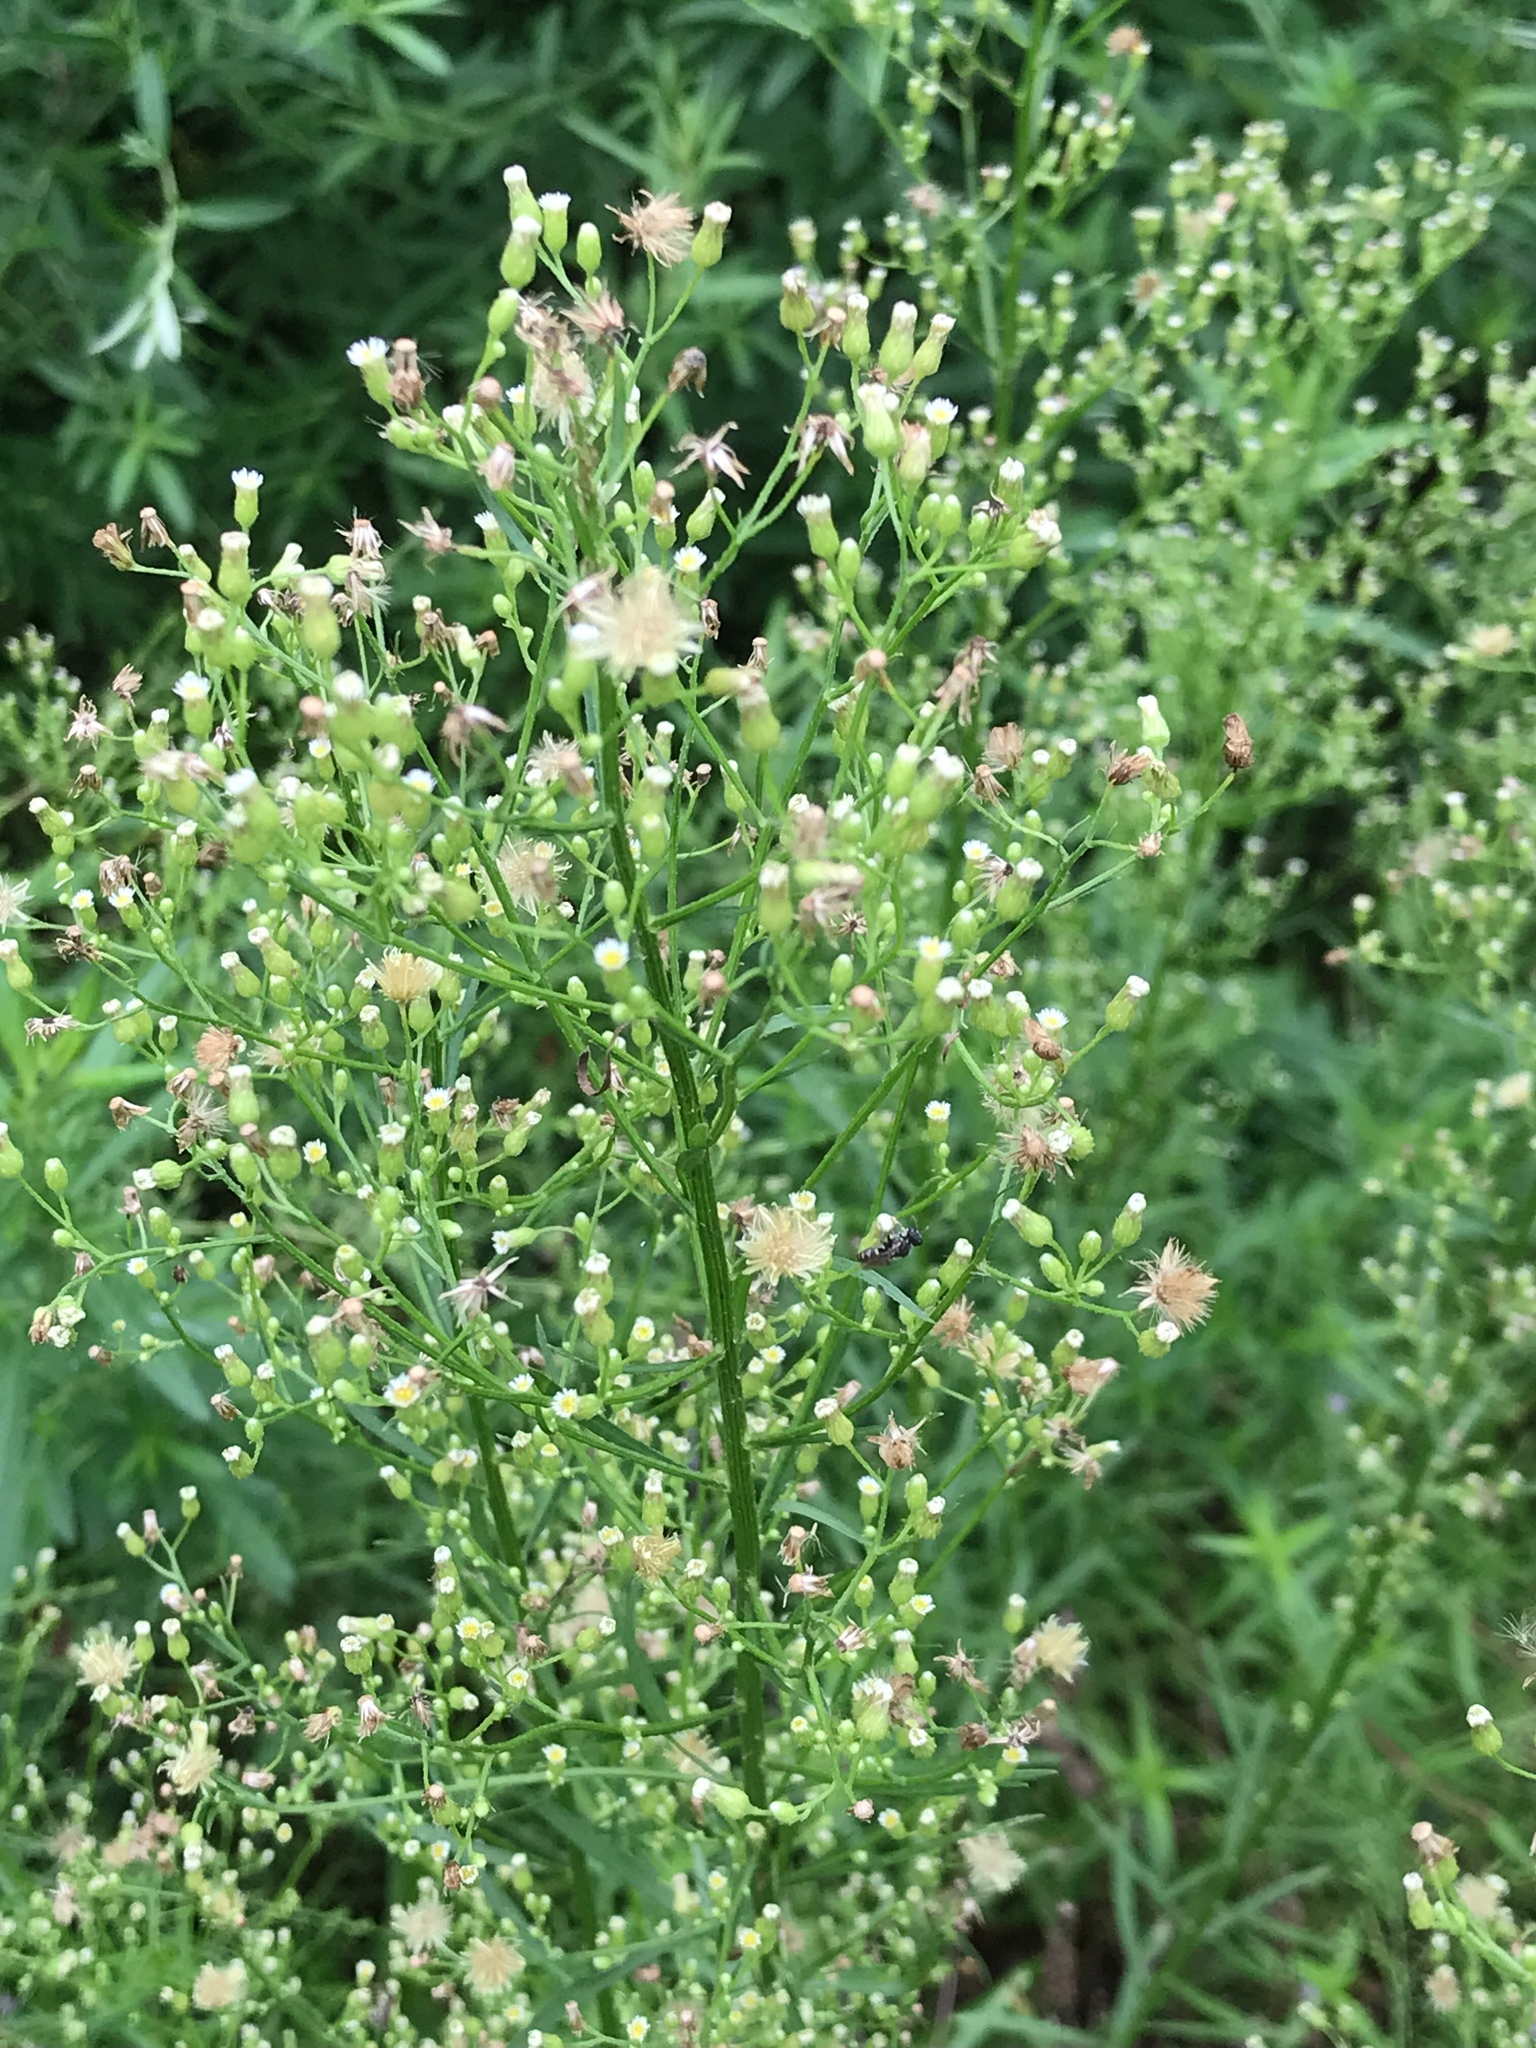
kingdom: Plantae
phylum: Tracheophyta
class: Magnoliopsida
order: Asterales
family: Asteraceae
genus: Erigeron
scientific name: Erigeron canadensis
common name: Canadian fleabane
